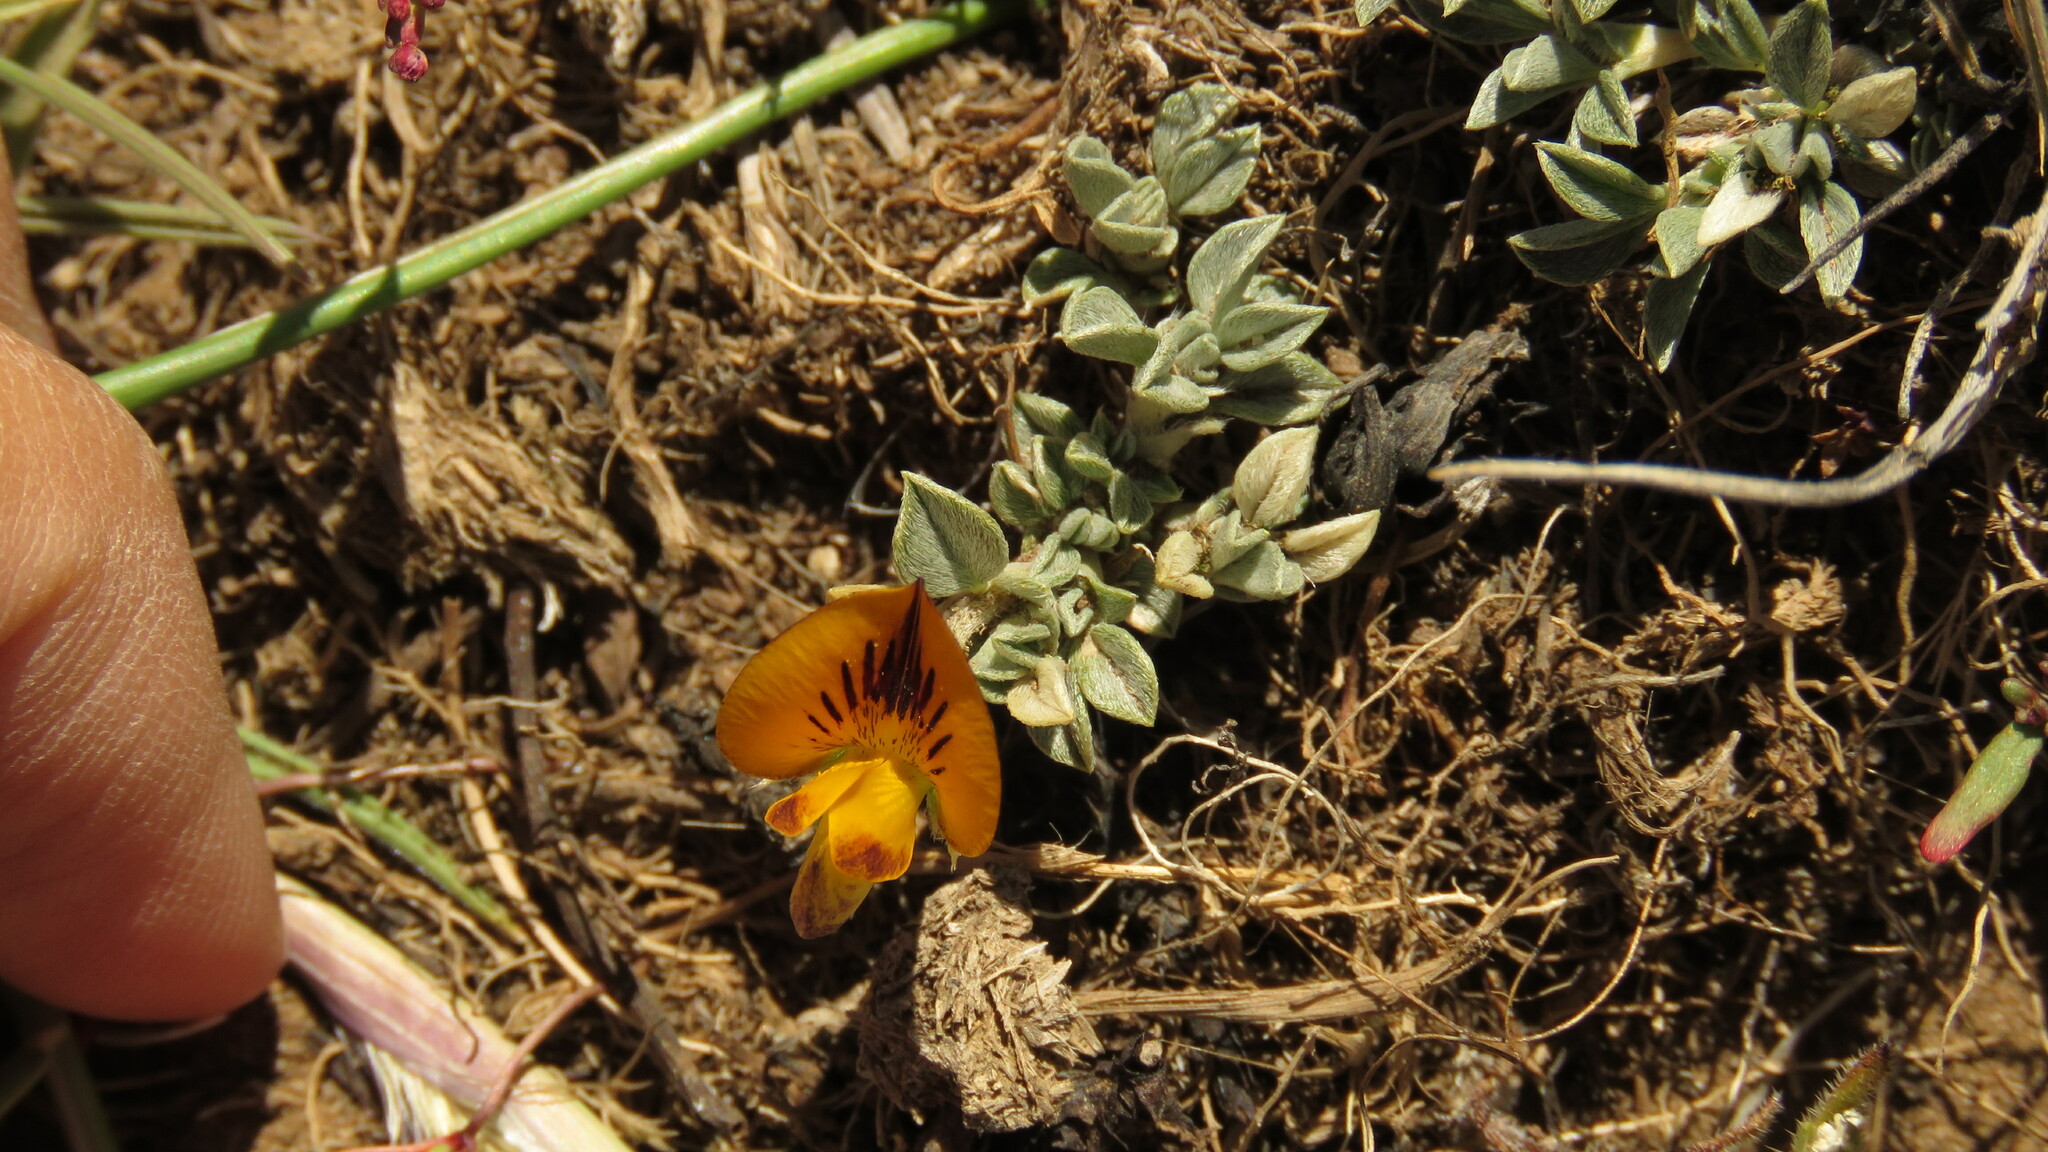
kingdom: Plantae
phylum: Tracheophyta
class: Magnoliopsida
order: Fabales
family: Fabaceae
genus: Adesmia
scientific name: Adesmia lotoides
